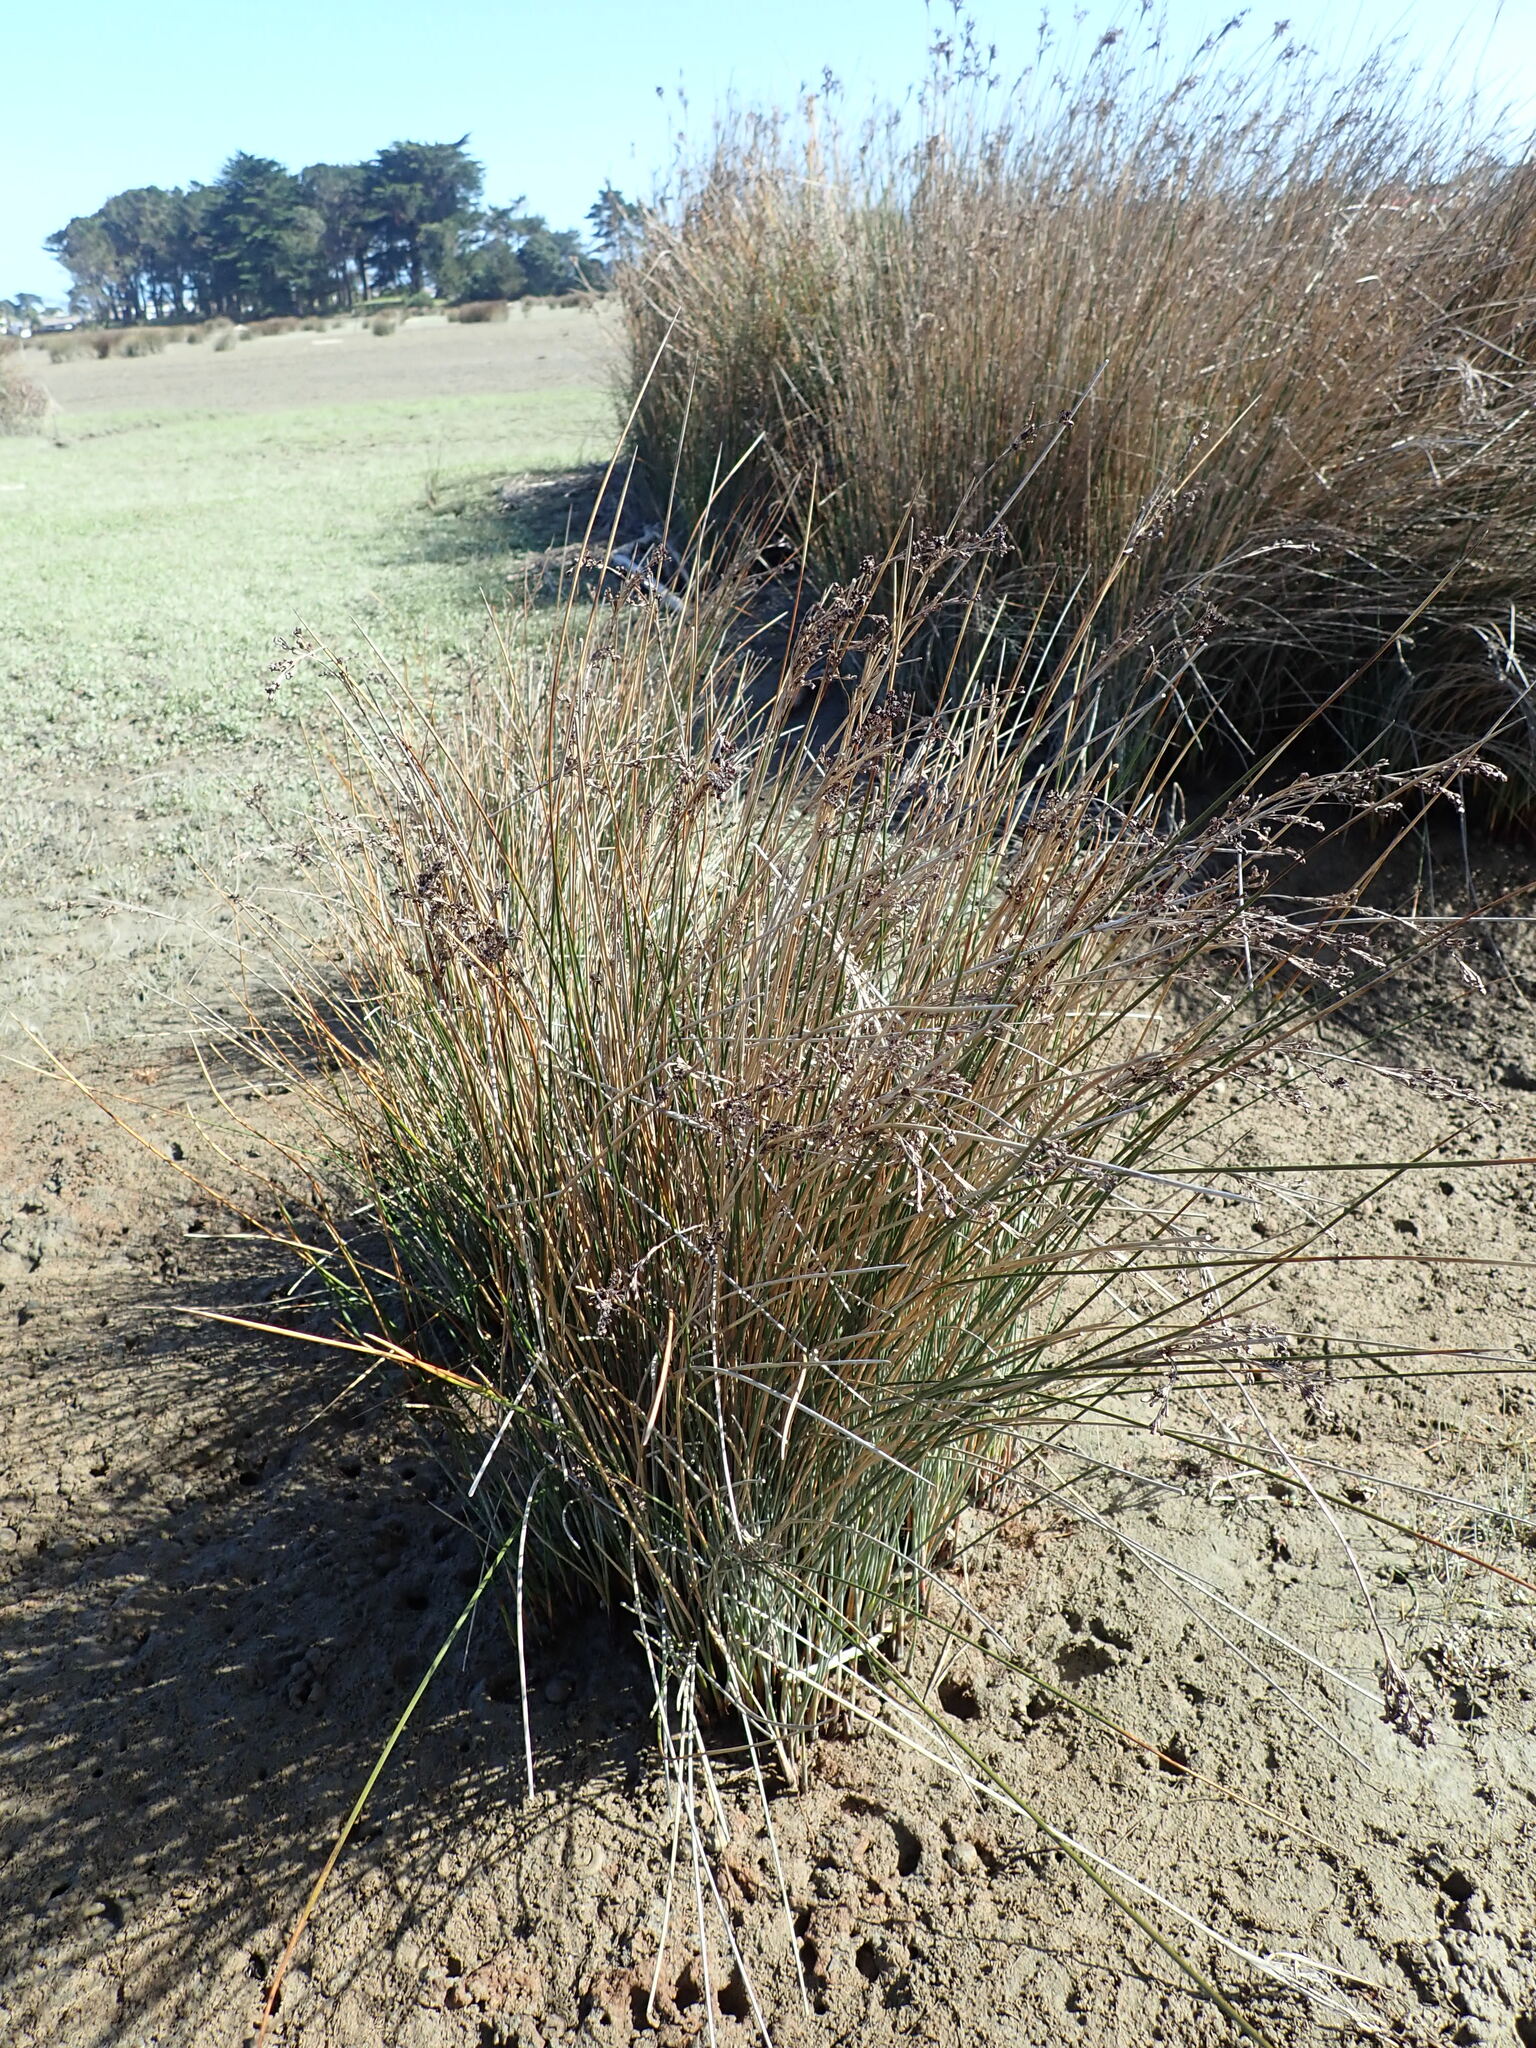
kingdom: Plantae
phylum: Tracheophyta
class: Liliopsida
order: Poales
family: Juncaceae
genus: Juncus
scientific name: Juncus kraussii
